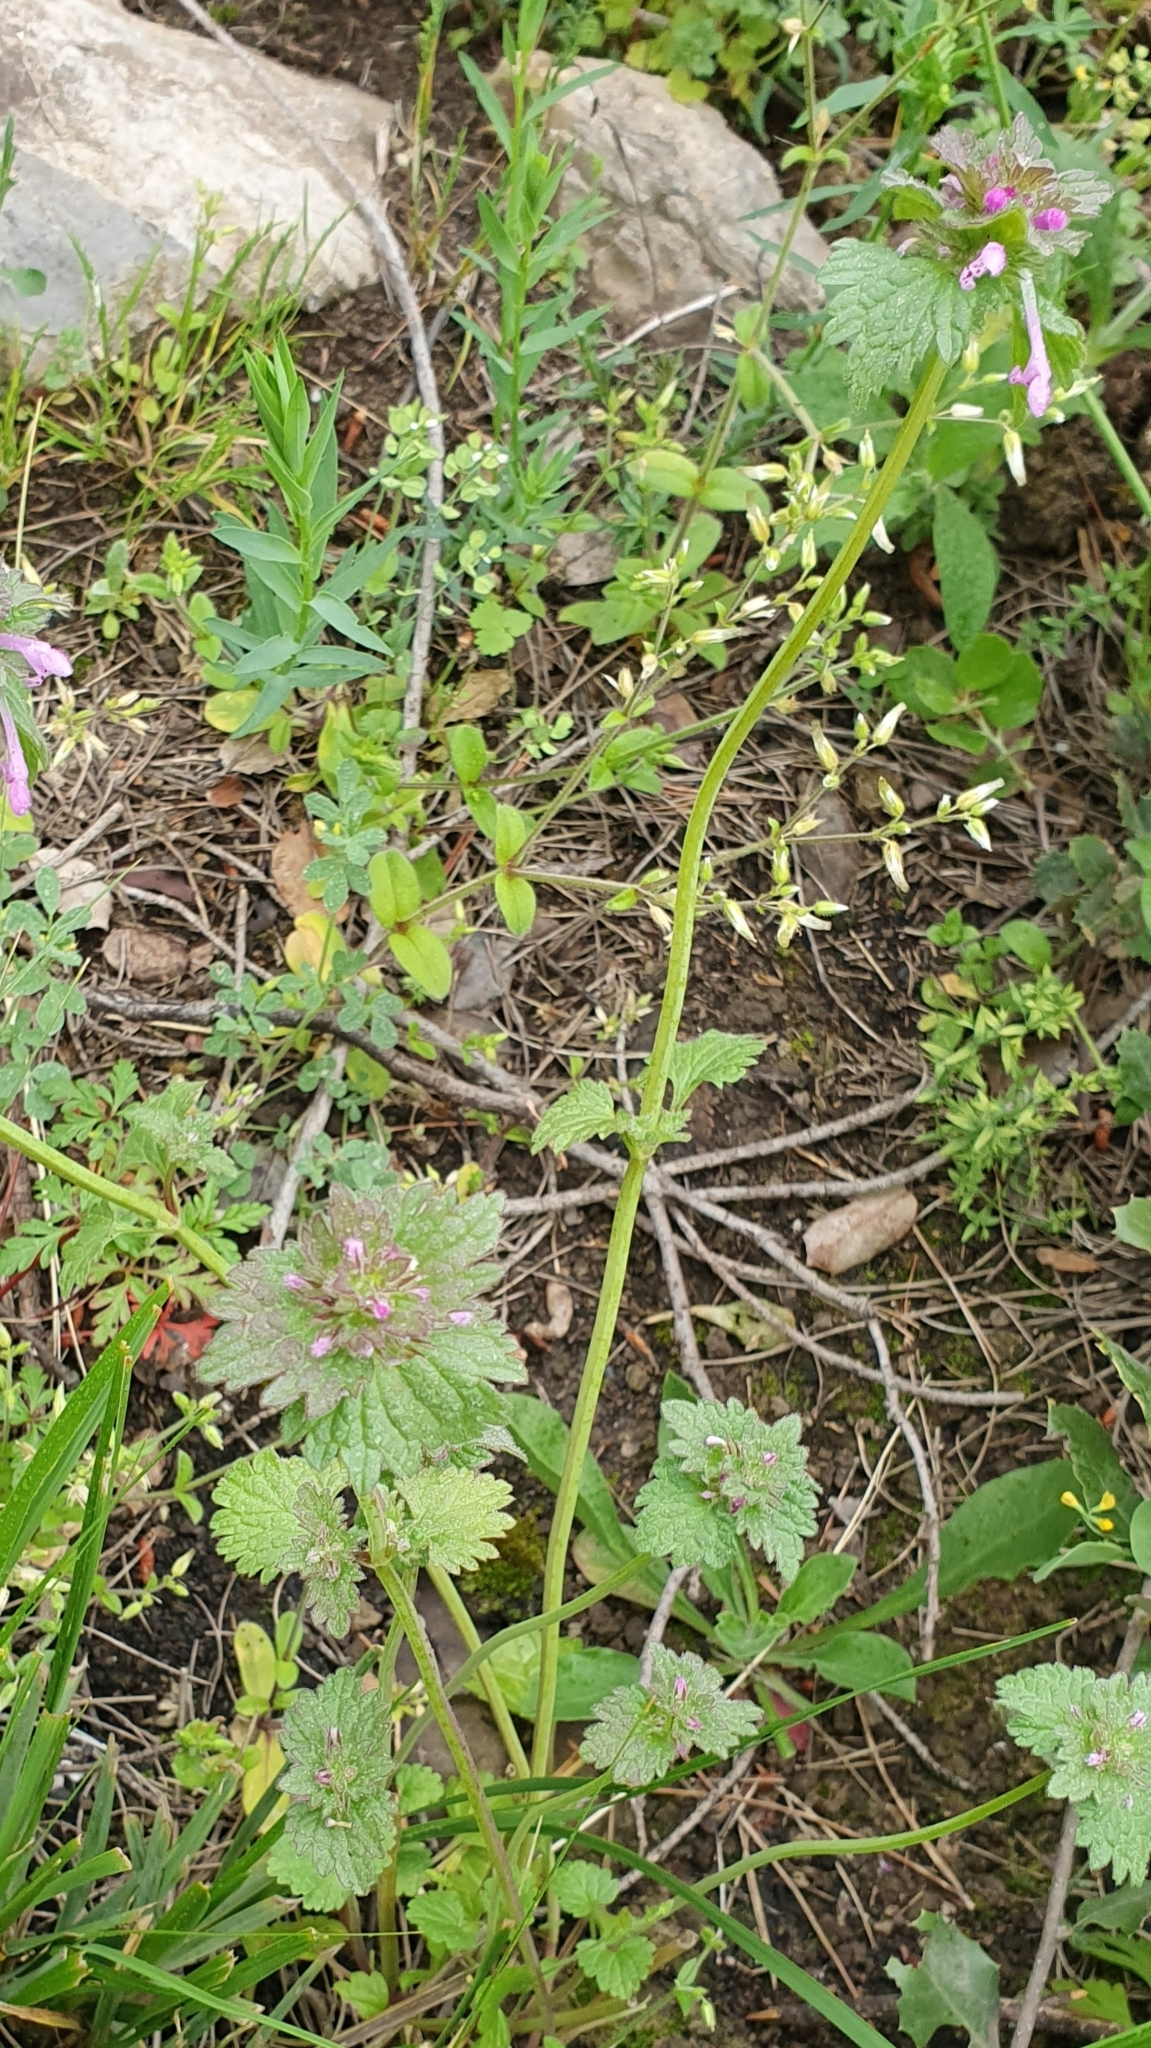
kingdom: Plantae
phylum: Tracheophyta
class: Magnoliopsida
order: Lamiales
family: Lamiaceae
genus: Lamium
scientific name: Lamium amplexicaule
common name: Henbit dead-nettle
